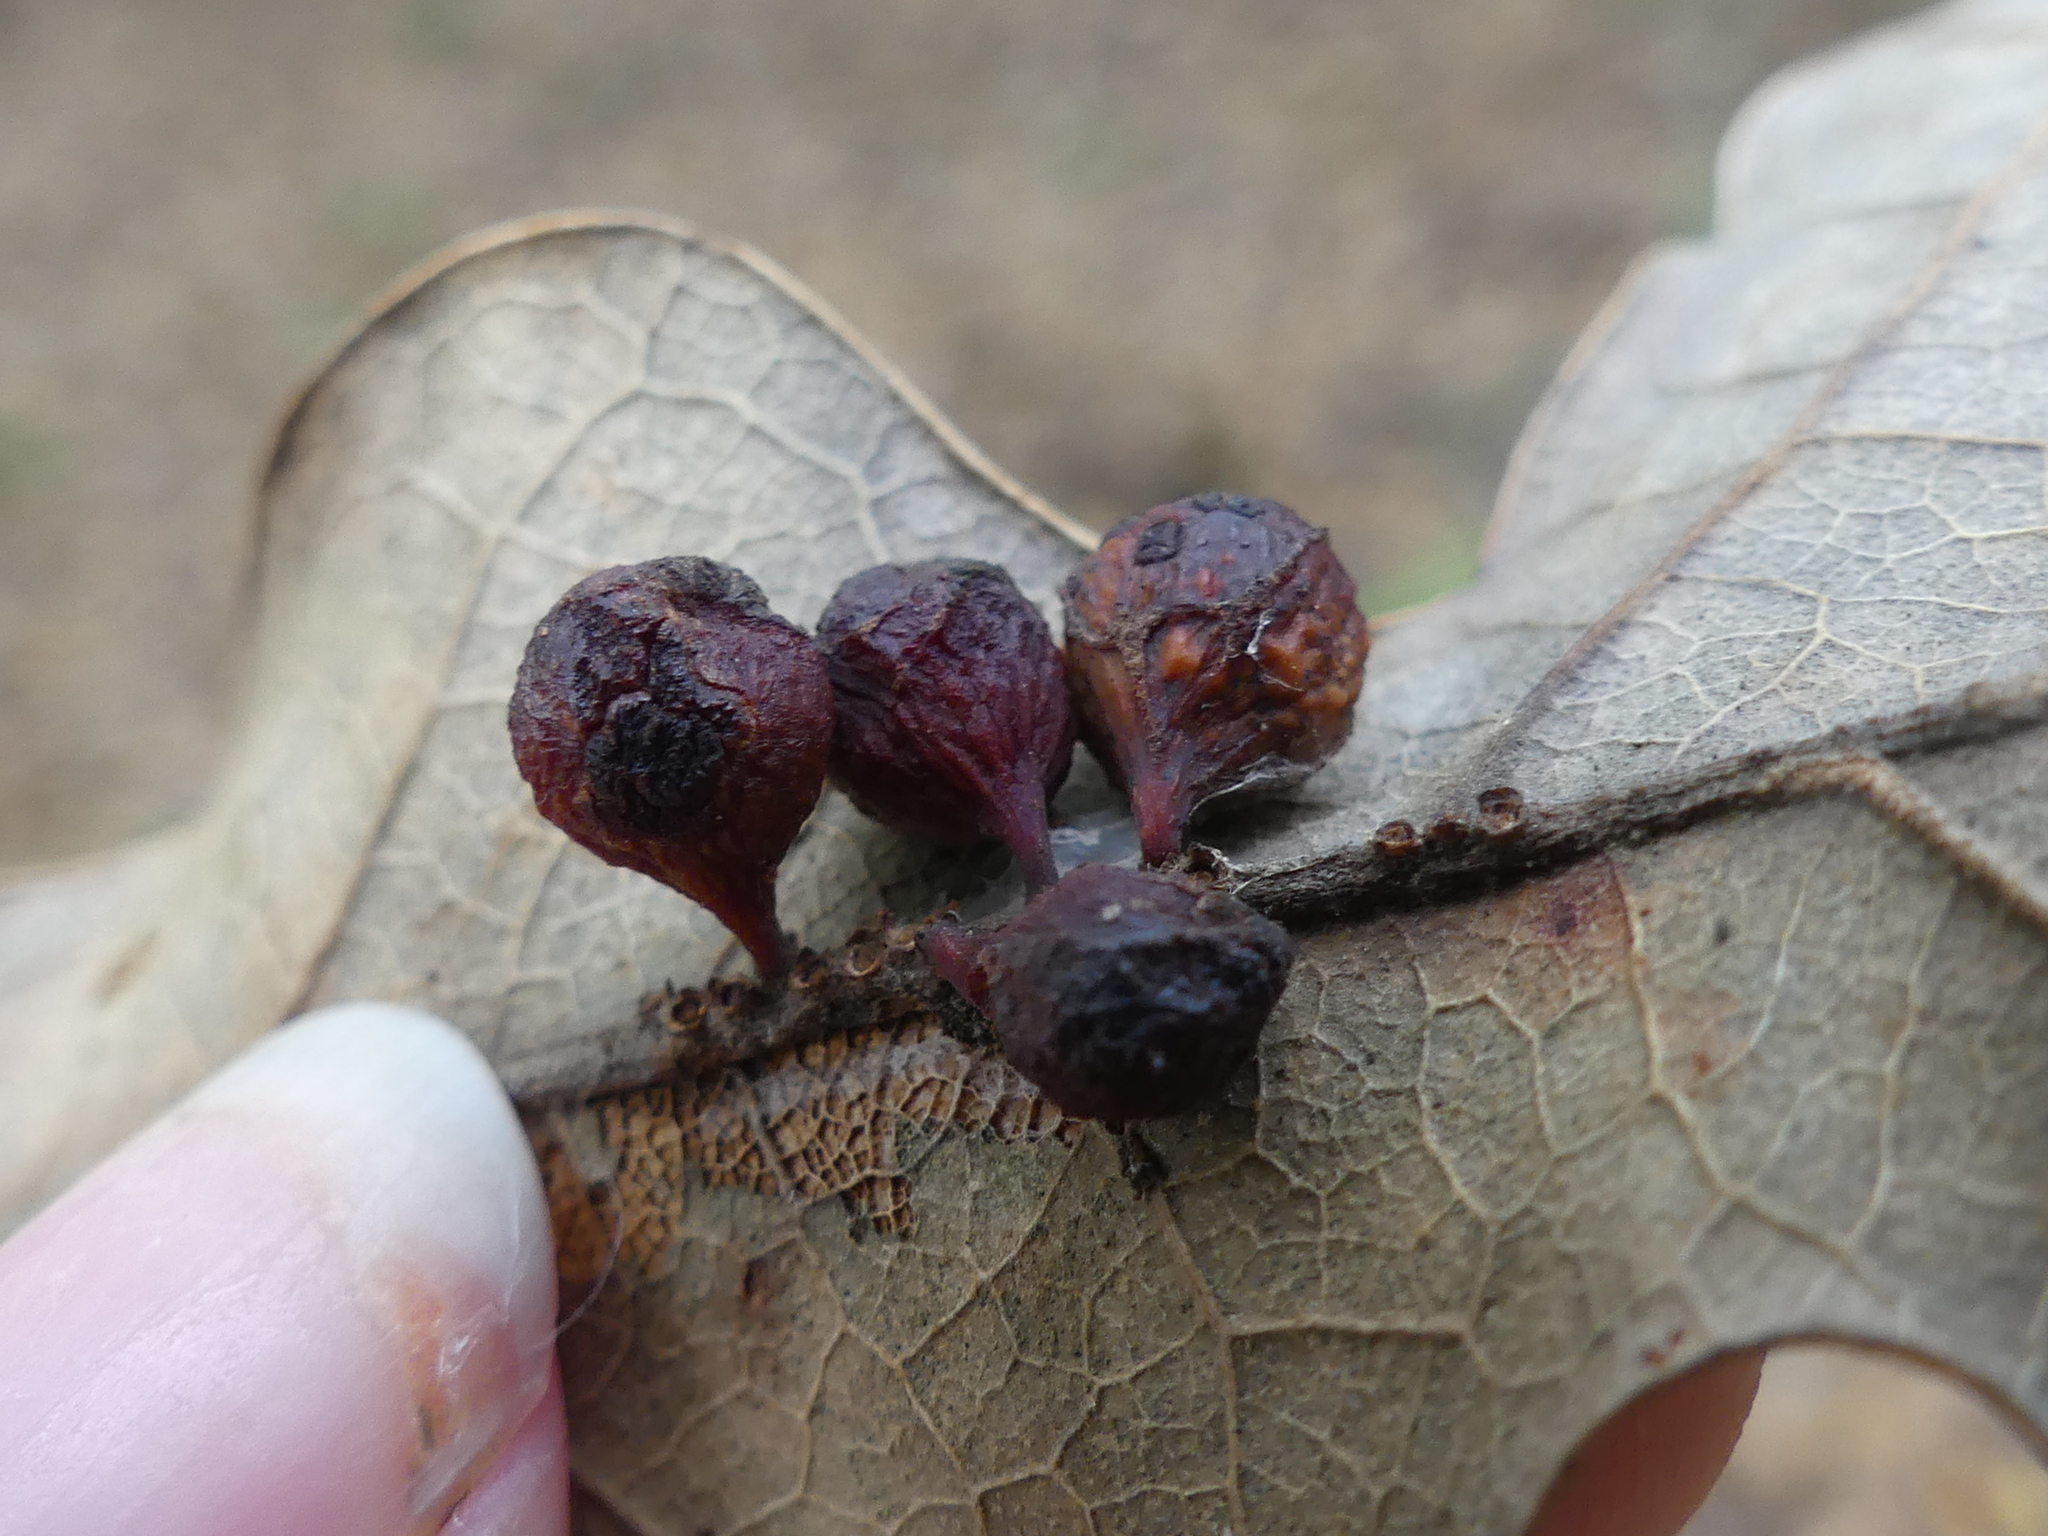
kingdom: Animalia
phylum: Arthropoda
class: Insecta
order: Hymenoptera
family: Cynipidae
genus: Andricus
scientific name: Andricus
